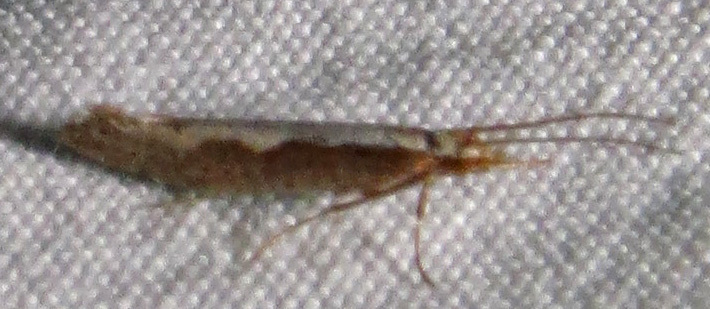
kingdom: Animalia
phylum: Arthropoda
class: Insecta
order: Lepidoptera
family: Plutellidae
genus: Plutella
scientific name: Plutella xylostella
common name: Diamond-back moth
